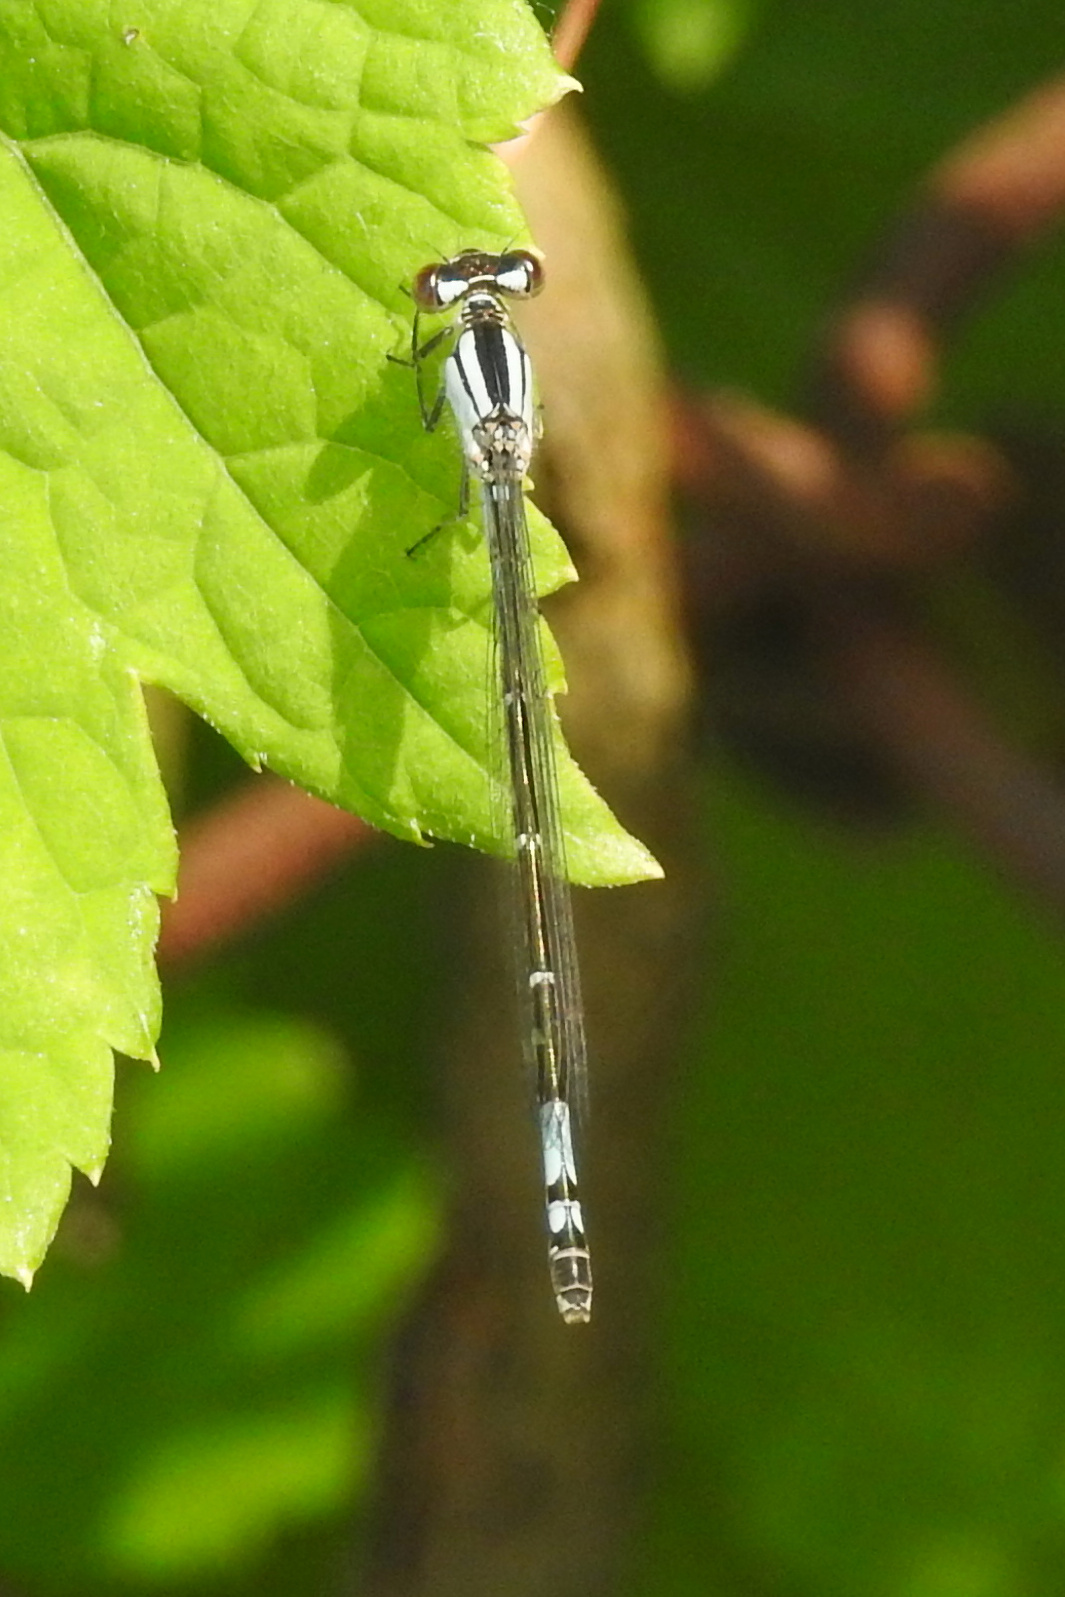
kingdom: Animalia
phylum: Arthropoda
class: Insecta
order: Odonata
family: Coenagrionidae
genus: Enallagma
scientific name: Enallagma aspersum
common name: Azure bluet
